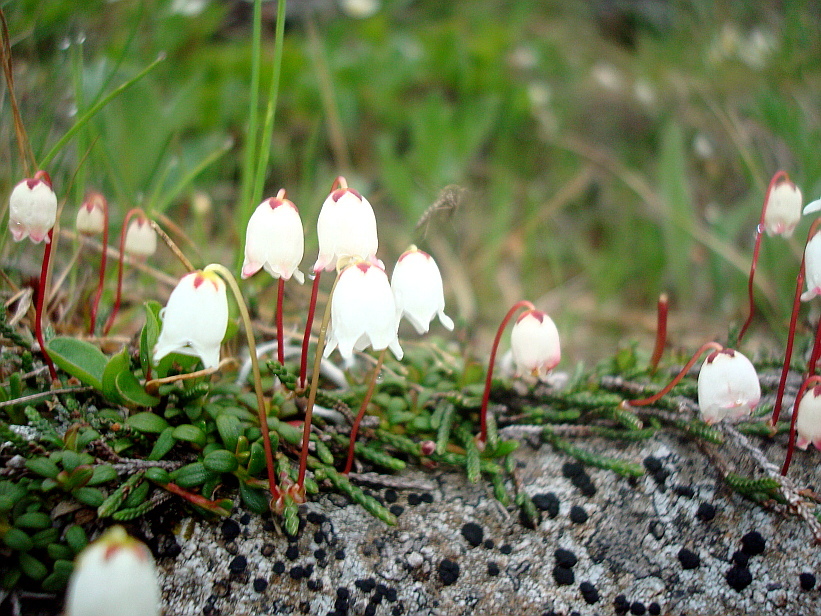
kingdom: Plantae
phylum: Tracheophyta
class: Magnoliopsida
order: Ericales
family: Ericaceae
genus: Cassiope
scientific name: Cassiope lycopodioides
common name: Clubmoss mountain heather
